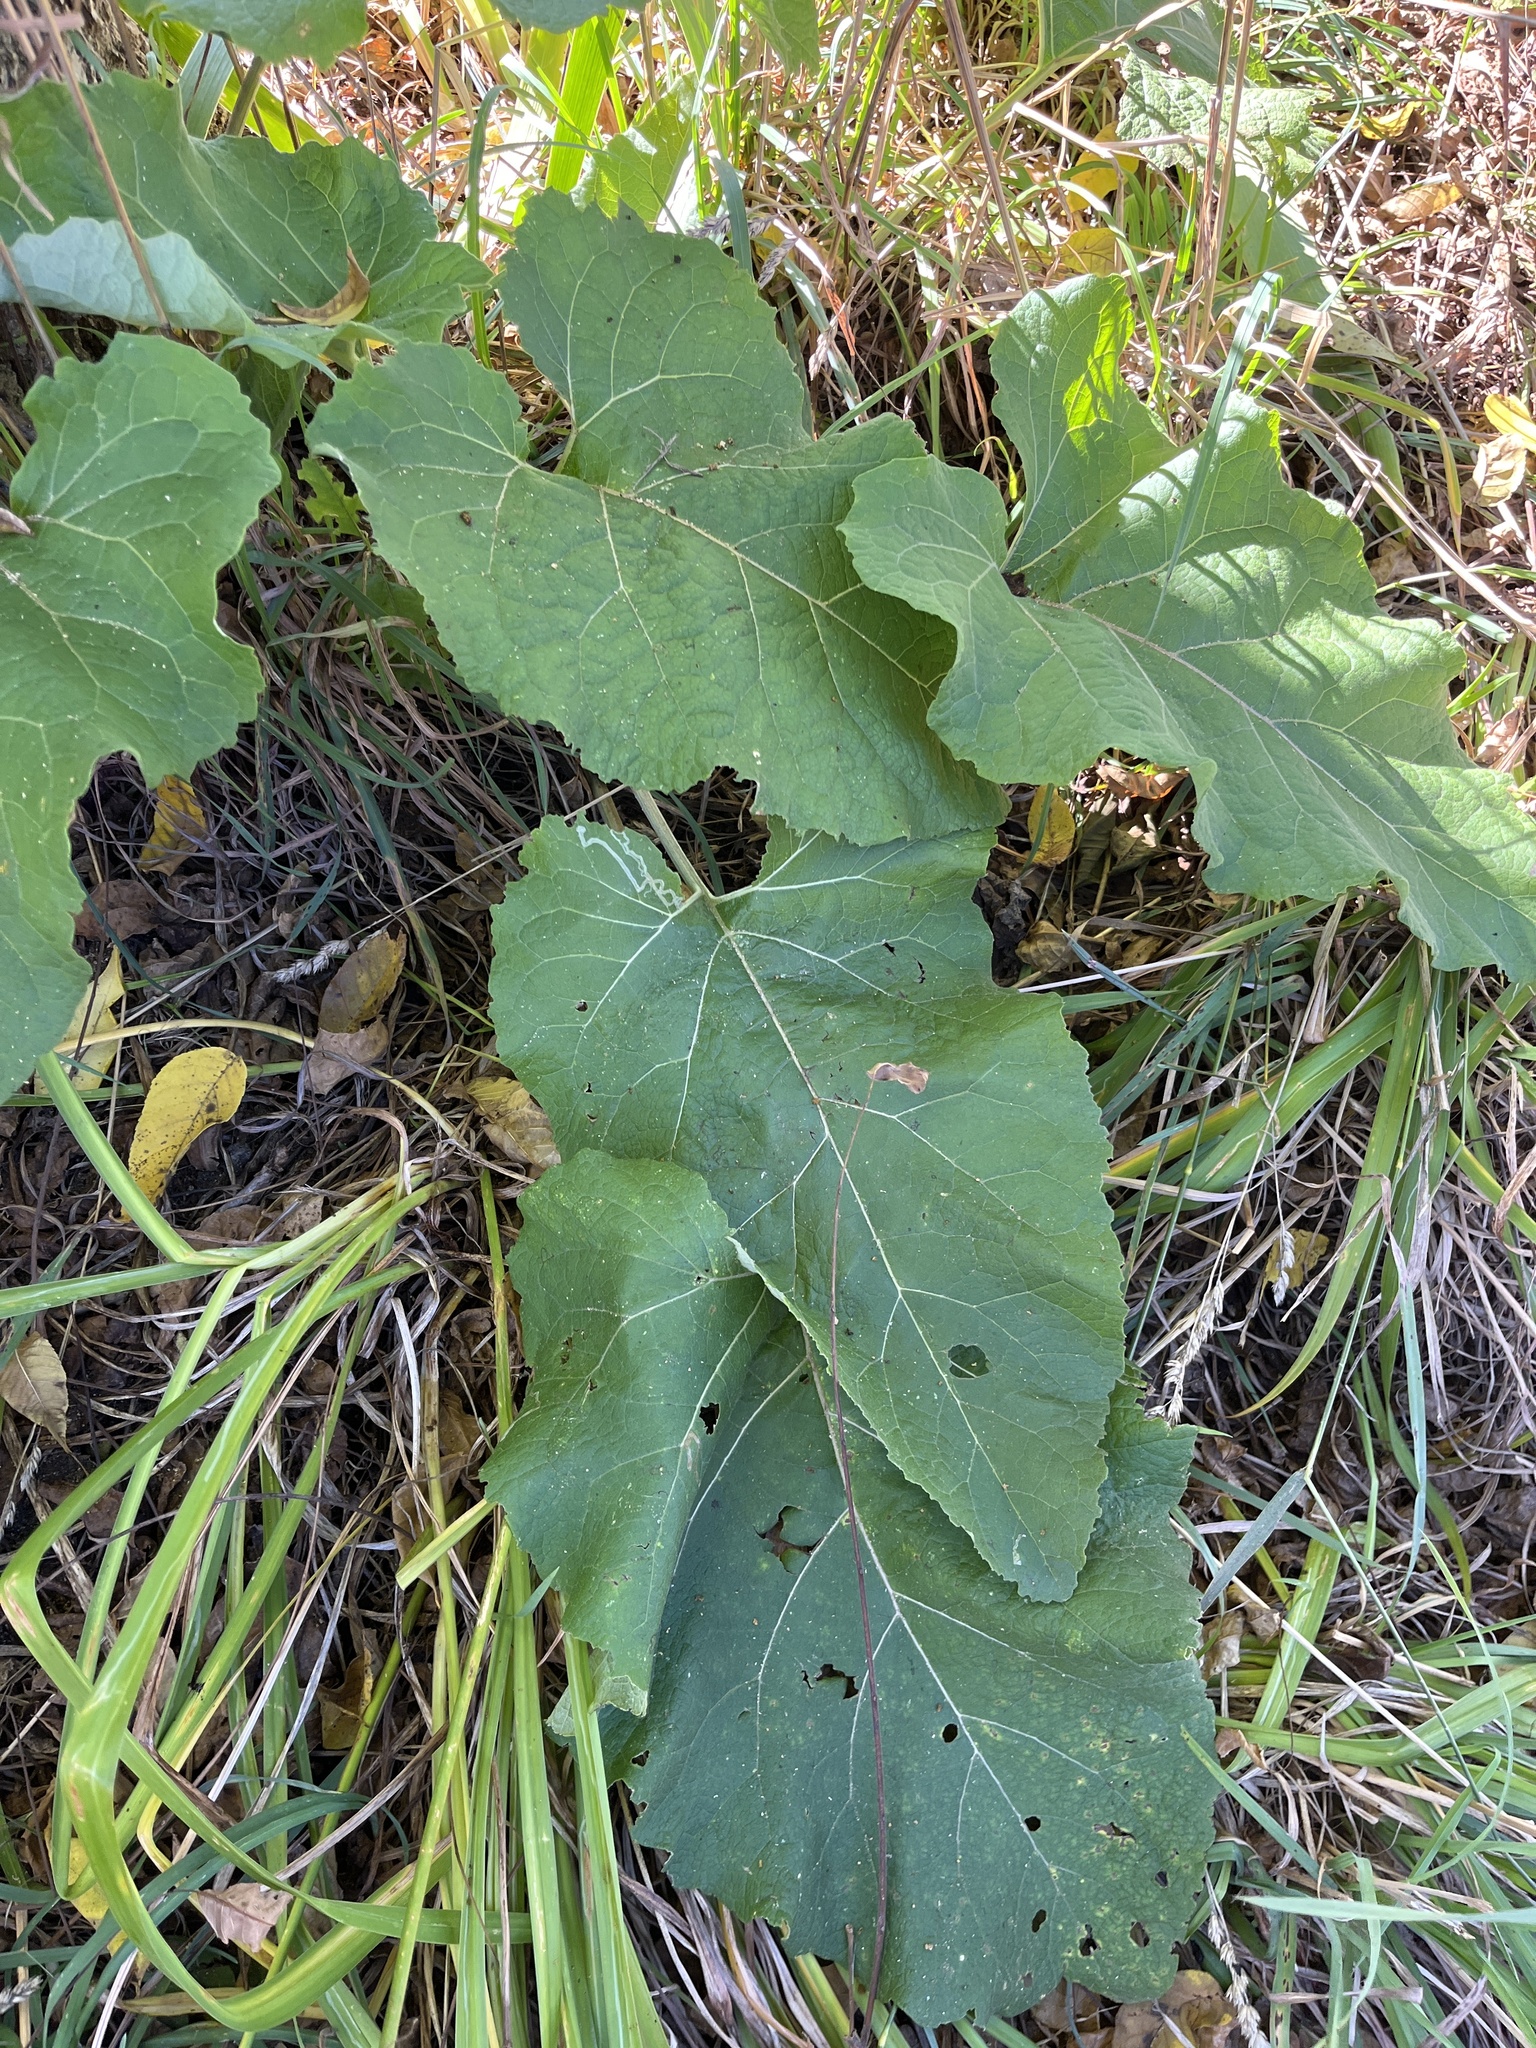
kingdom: Plantae
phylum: Tracheophyta
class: Magnoliopsida
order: Asterales
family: Asteraceae
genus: Arctium
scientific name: Arctium
